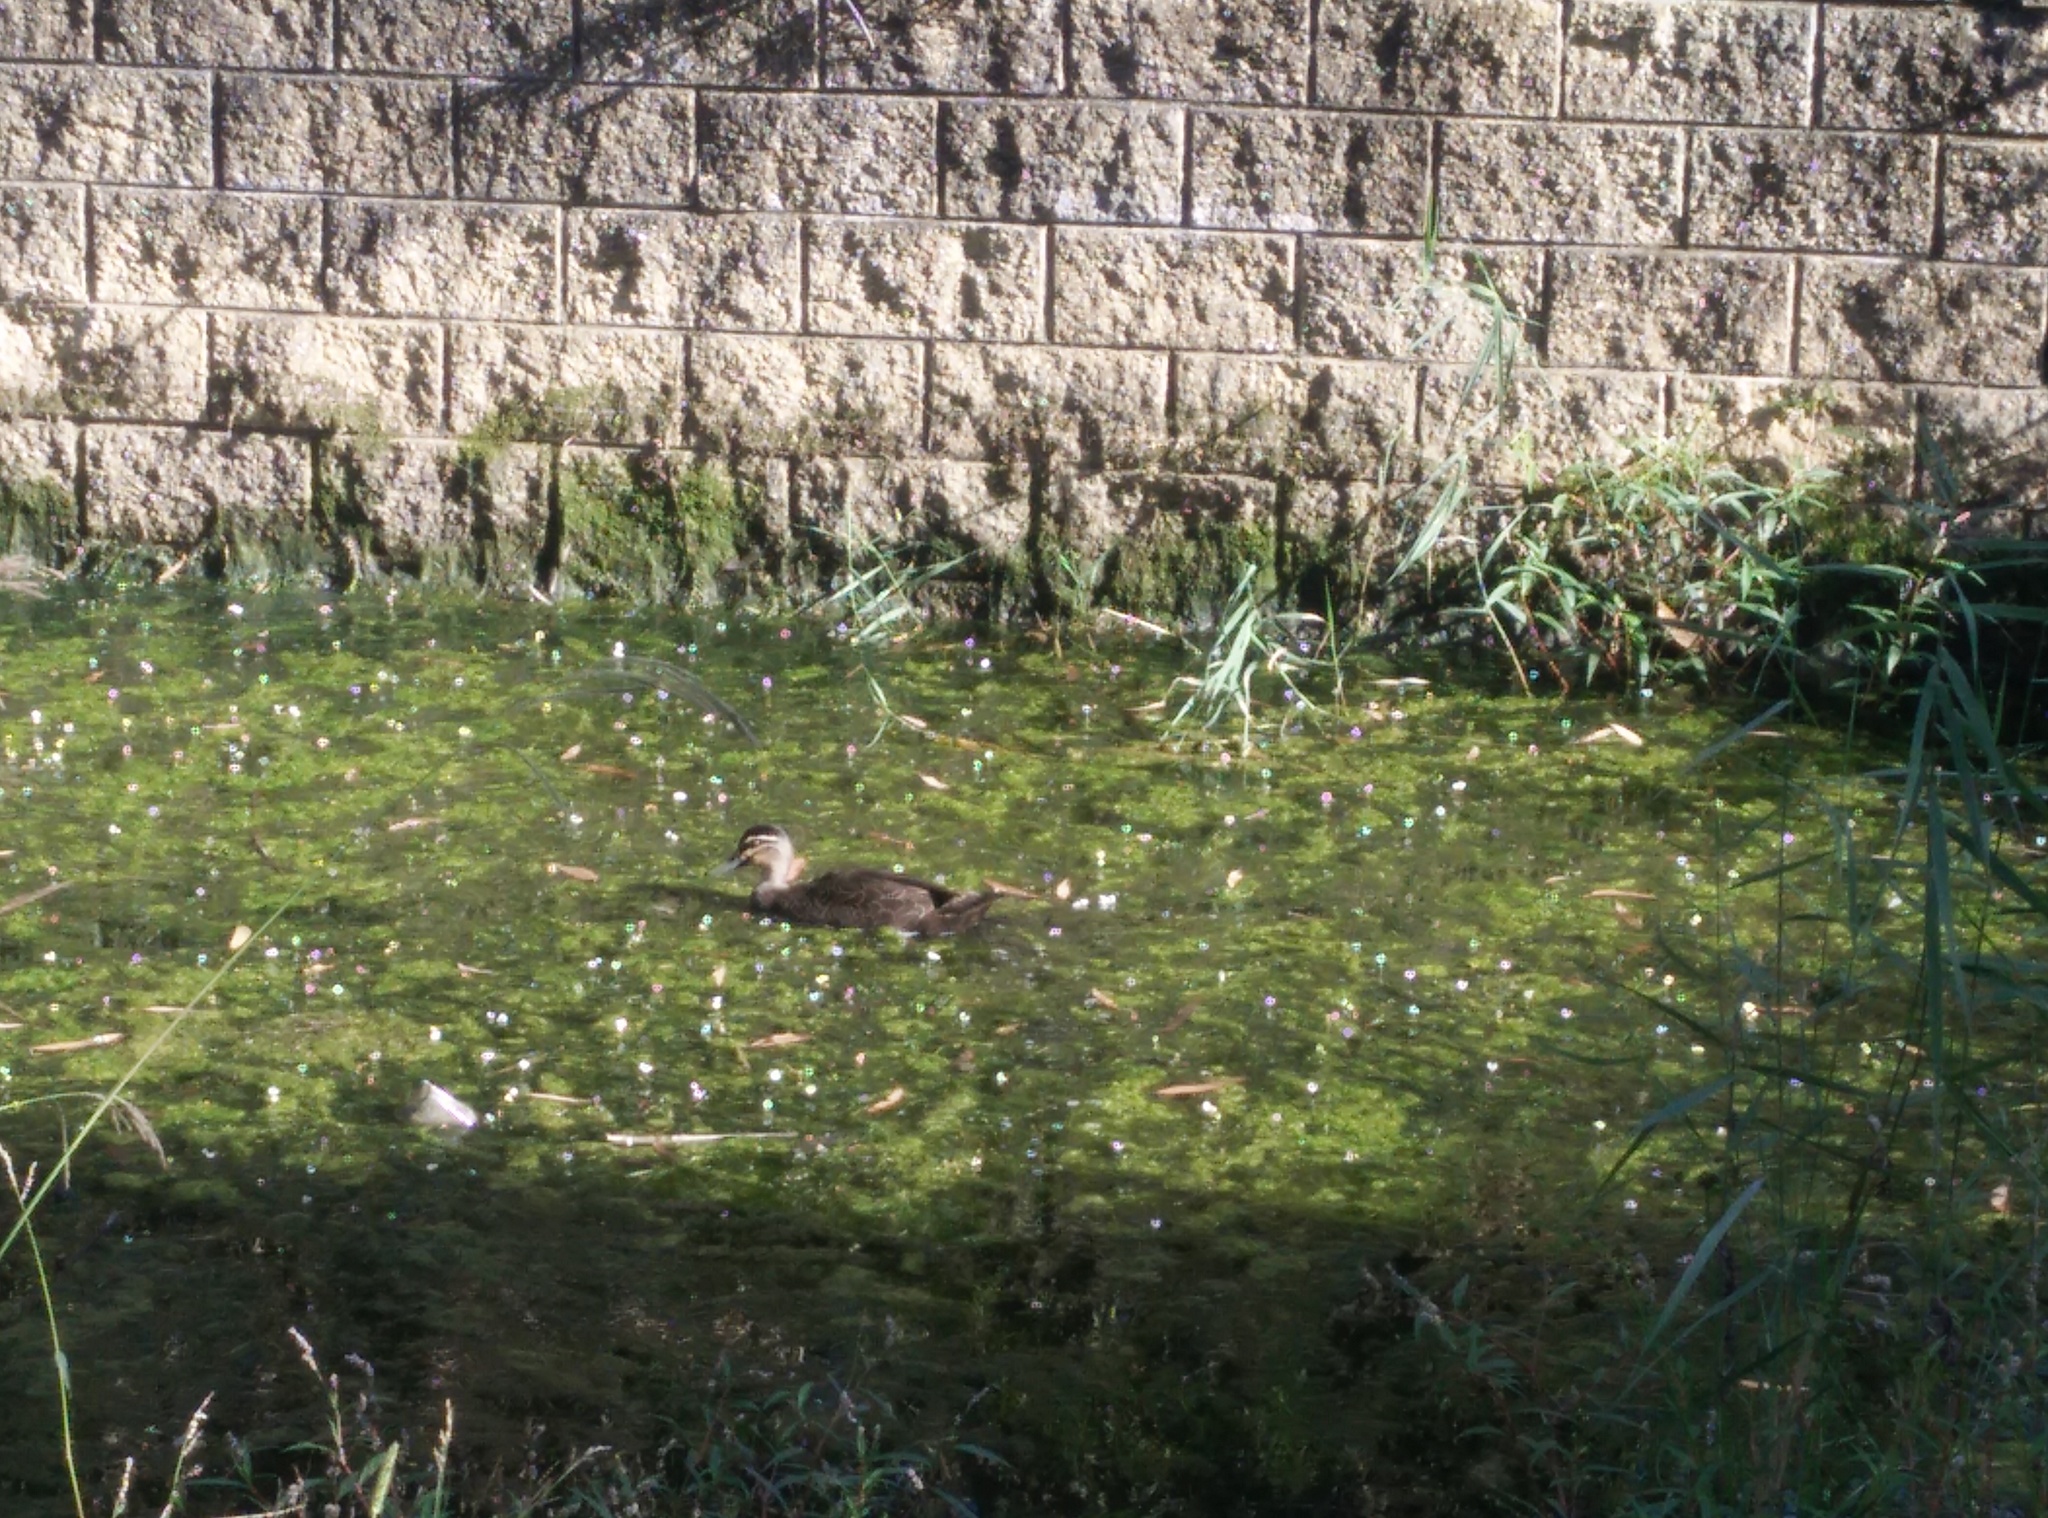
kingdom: Animalia
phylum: Chordata
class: Aves
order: Anseriformes
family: Anatidae
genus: Anas
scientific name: Anas superciliosa
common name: Pacific black duck
